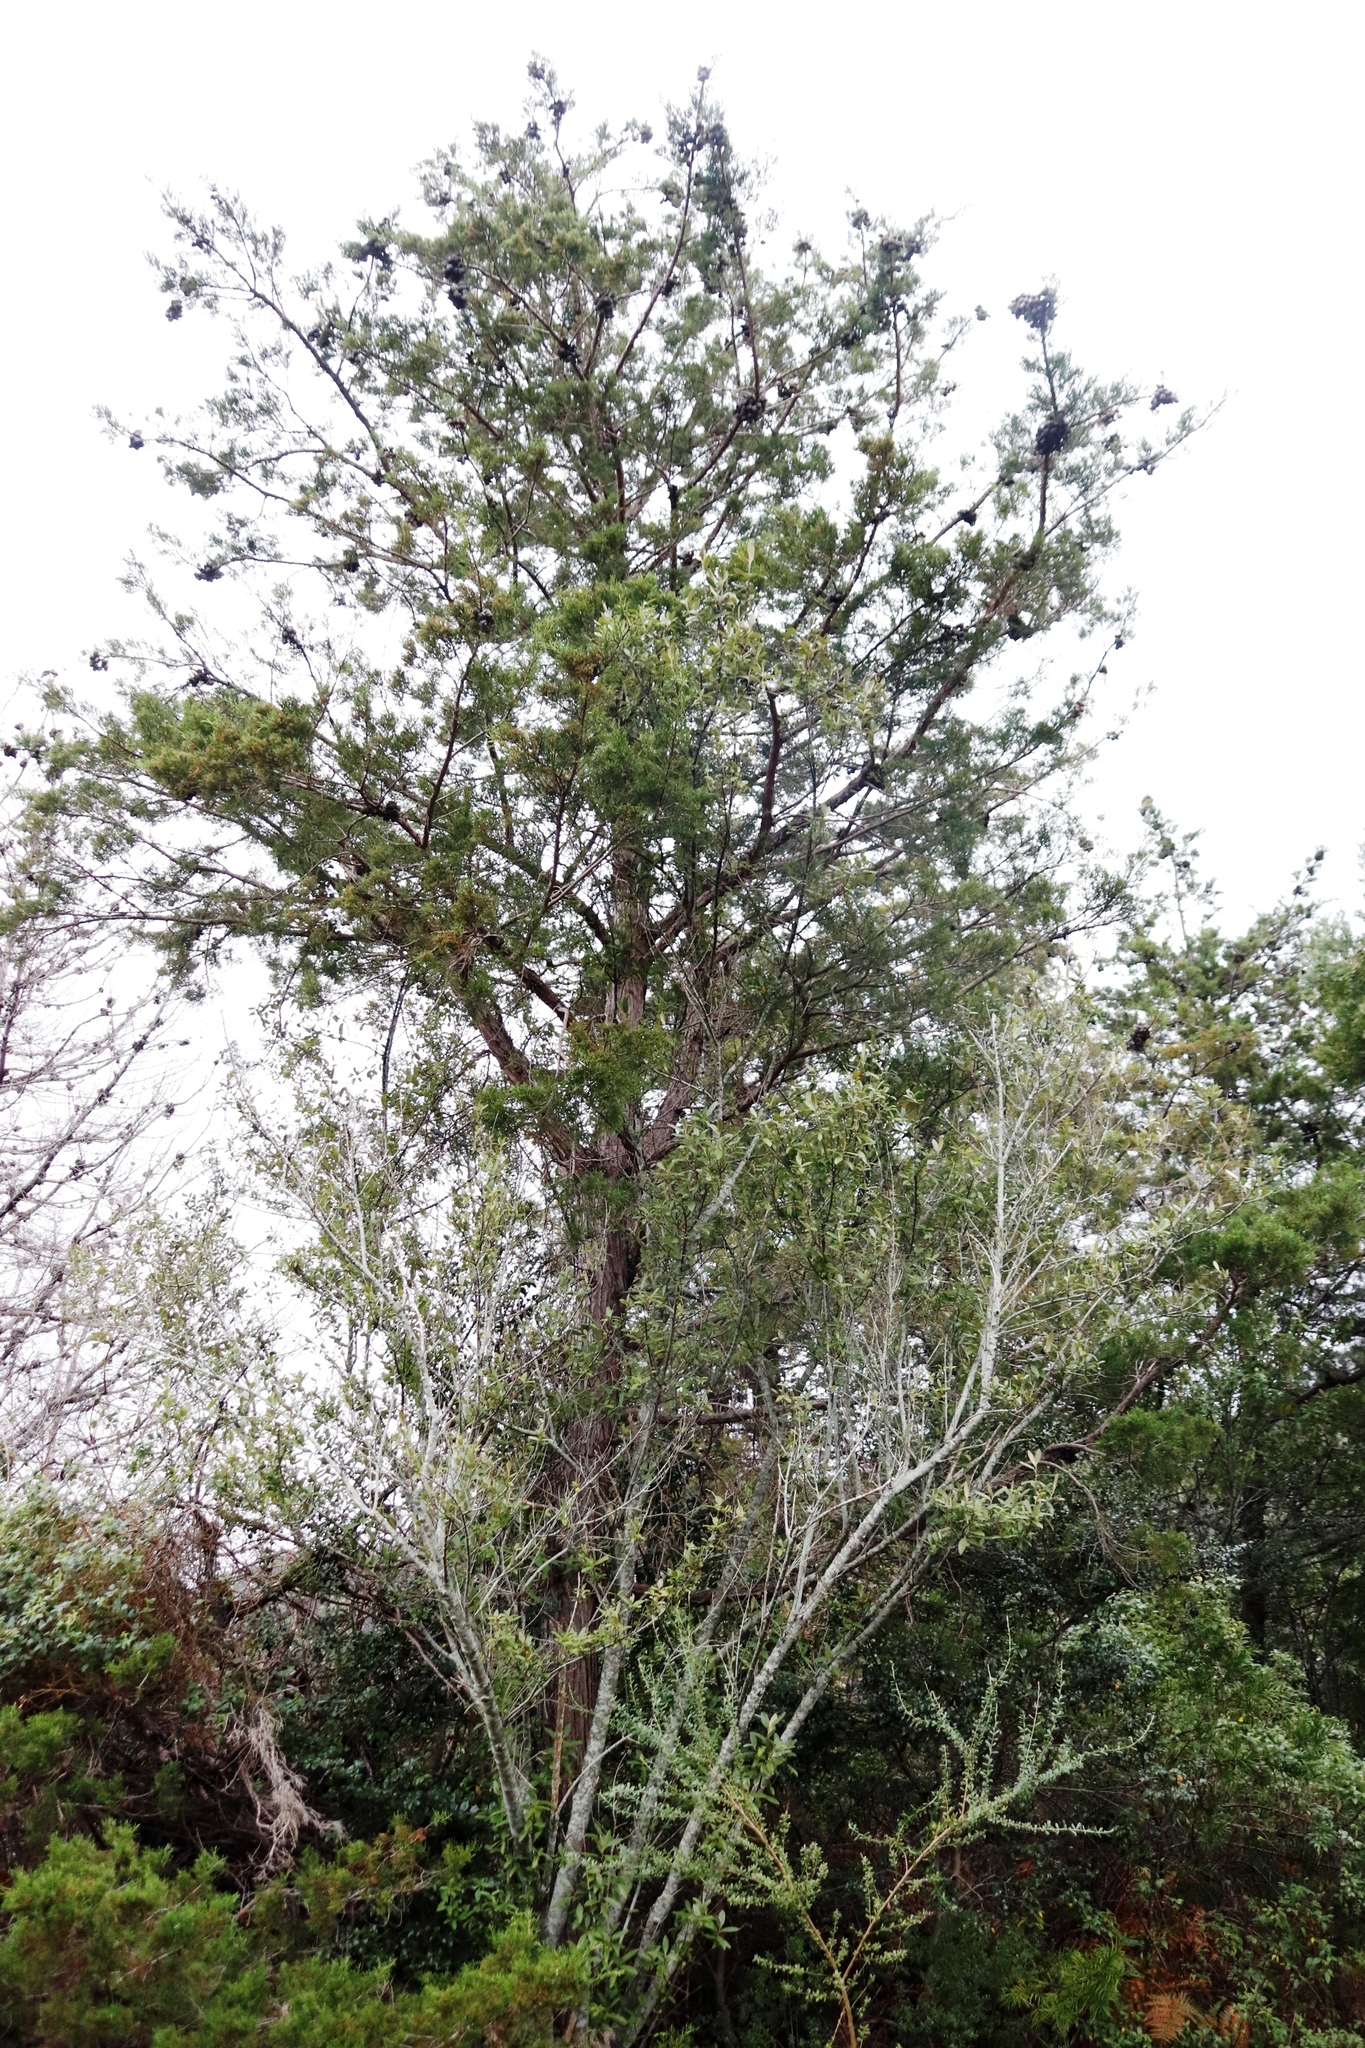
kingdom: Plantae
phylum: Tracheophyta
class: Pinopsida
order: Pinales
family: Cupressaceae
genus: Widdringtonia
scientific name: Widdringtonia schwarzii
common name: Baviaans cedar
